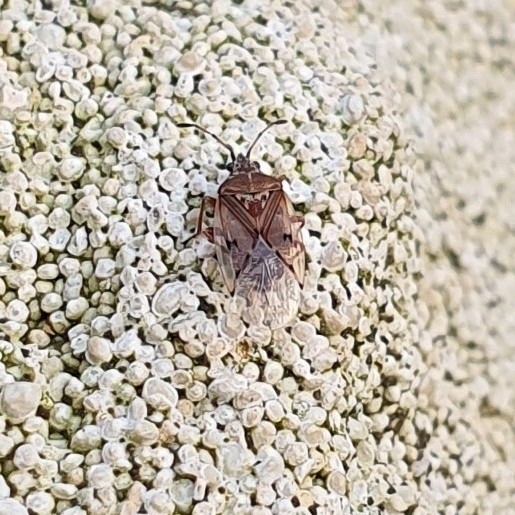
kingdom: Animalia
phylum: Arthropoda
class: Insecta
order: Hemiptera
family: Lygaeidae
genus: Kleidocerys
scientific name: Kleidocerys resedae
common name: Birch catkin bug
